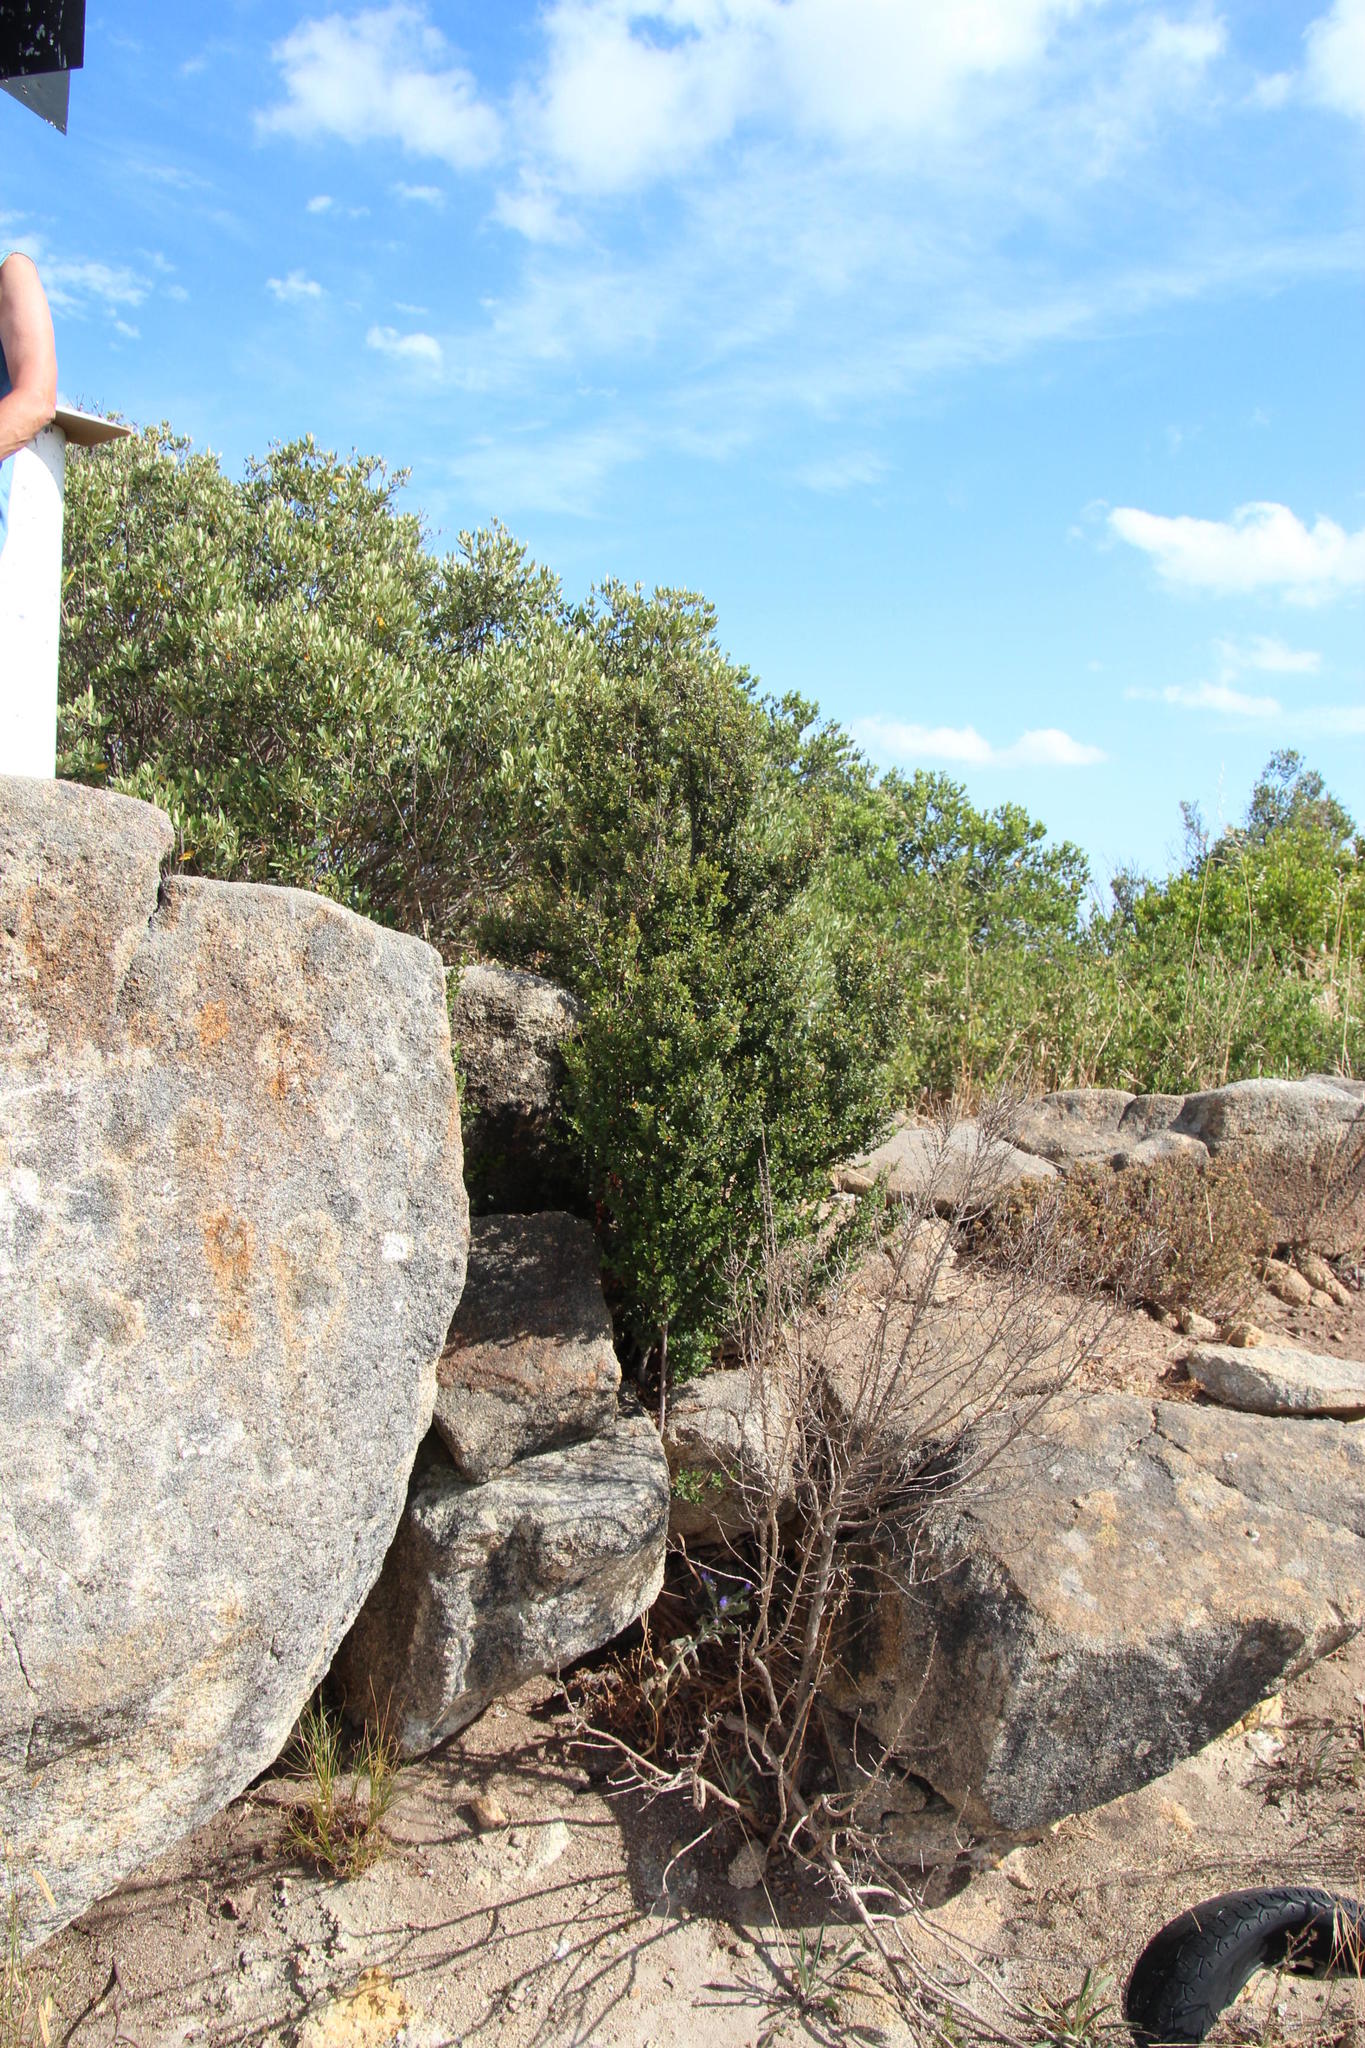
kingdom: Plantae
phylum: Tracheophyta
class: Magnoliopsida
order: Ericales
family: Ebenaceae
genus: Diospyros
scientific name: Diospyros glabra
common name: Fynbos star apple
